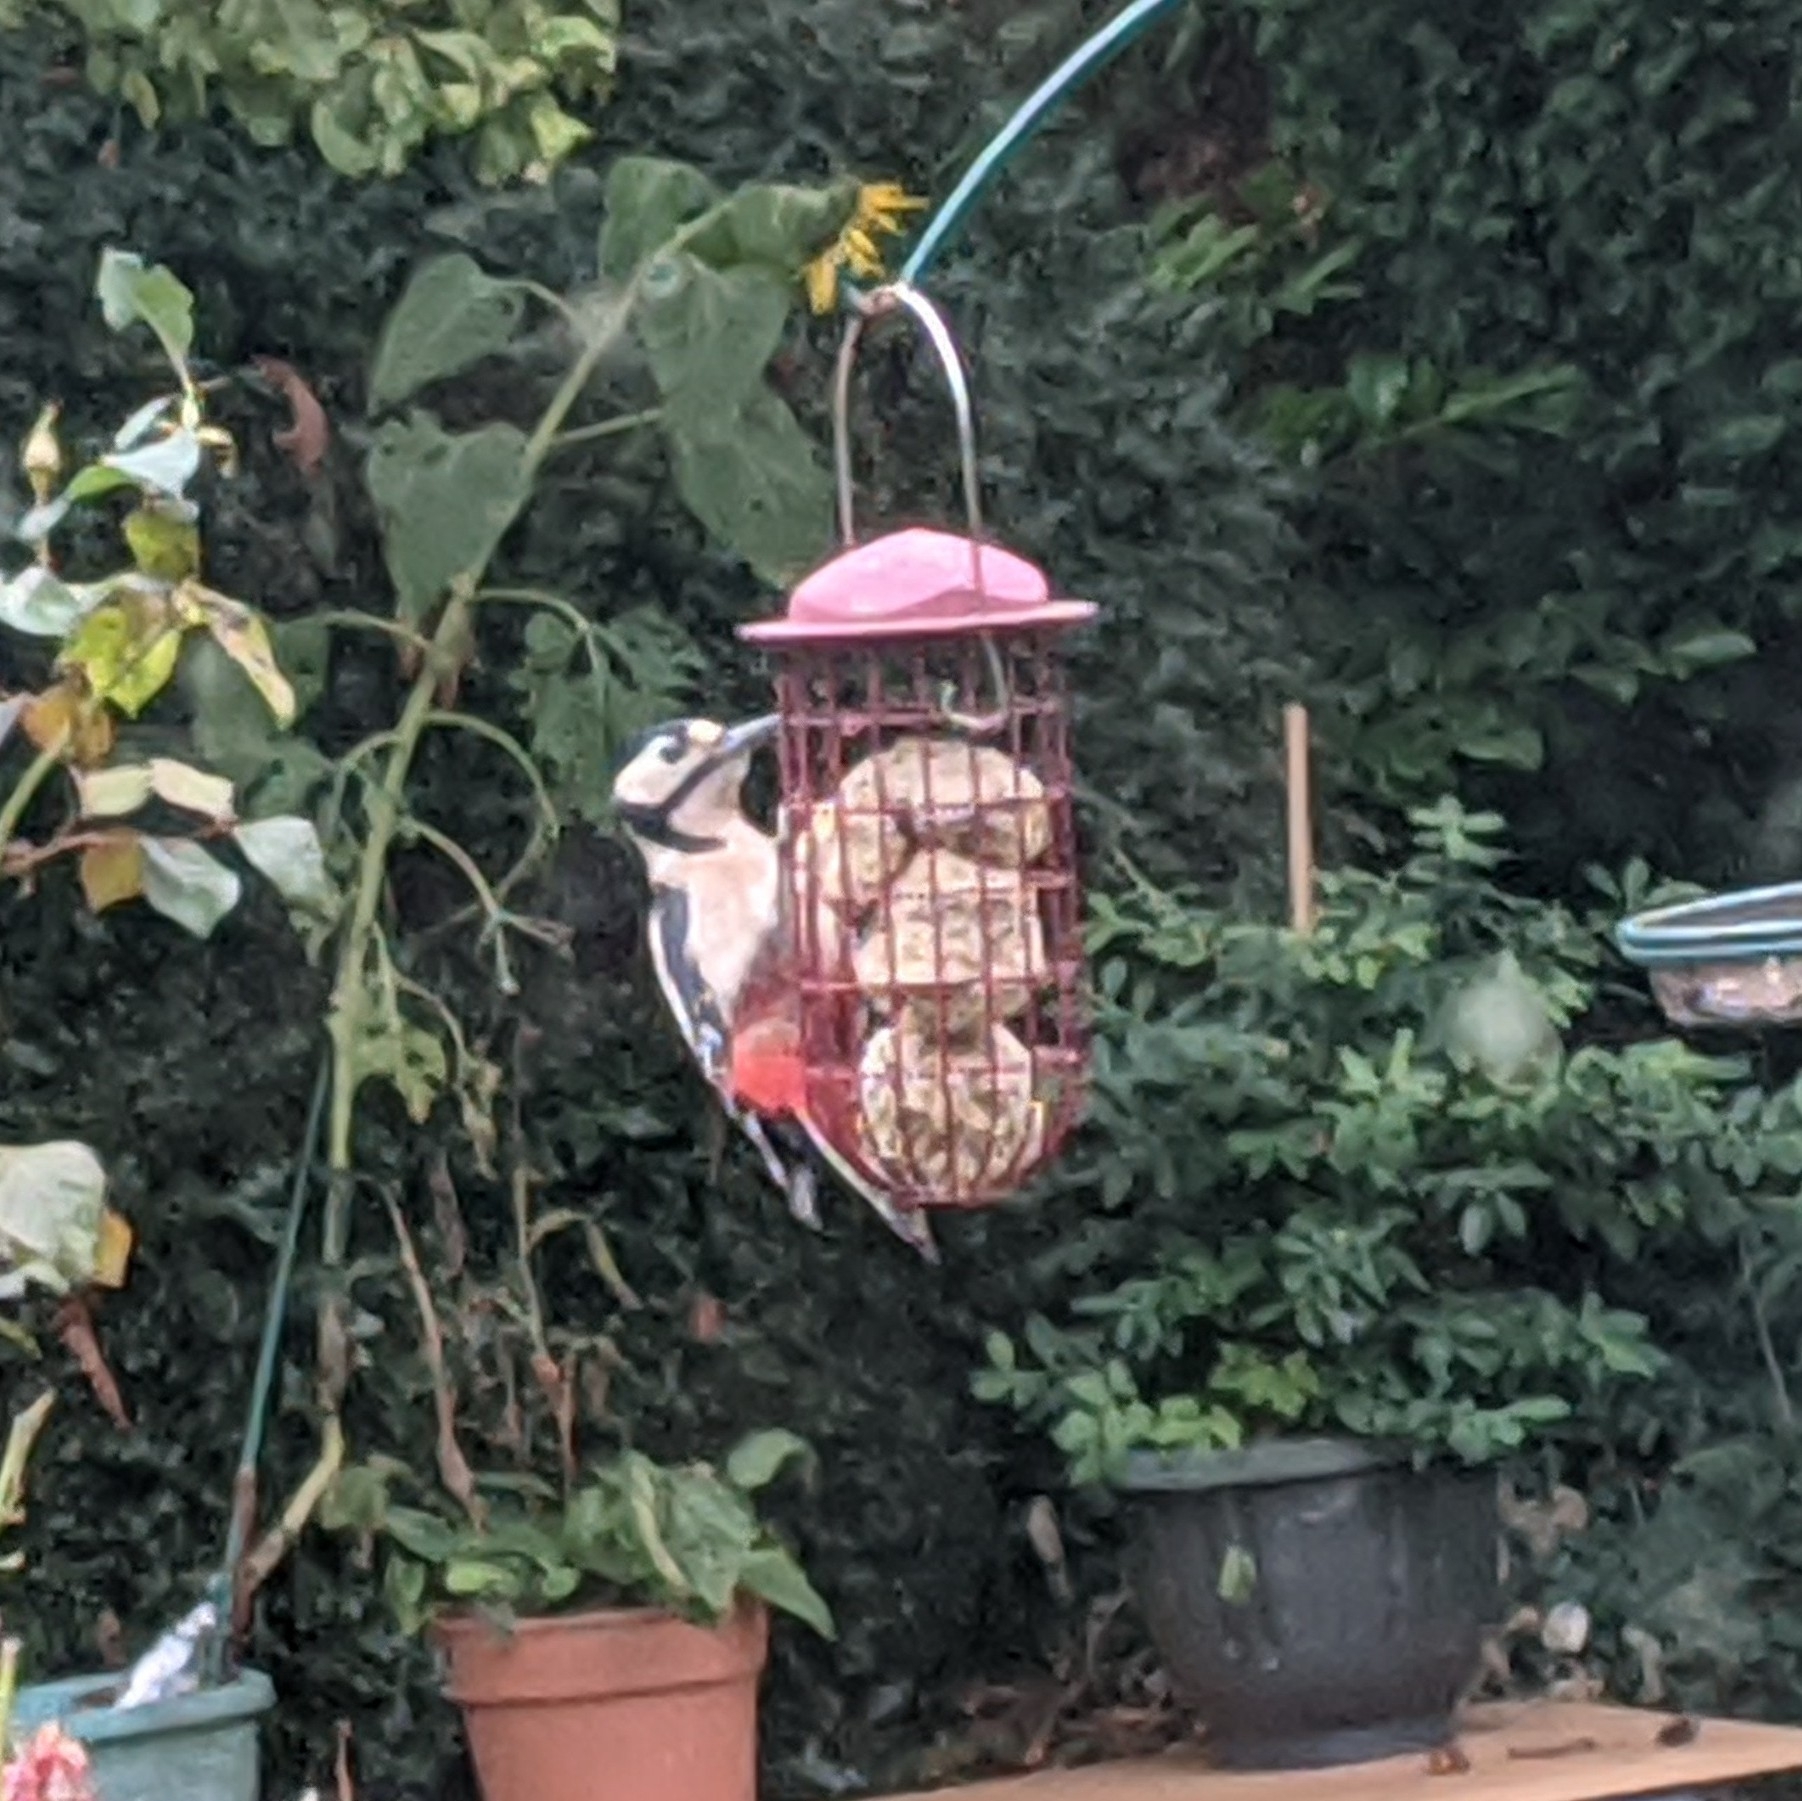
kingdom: Animalia
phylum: Chordata
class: Aves
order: Piciformes
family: Picidae
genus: Dendrocopos
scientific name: Dendrocopos major
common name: Great spotted woodpecker
